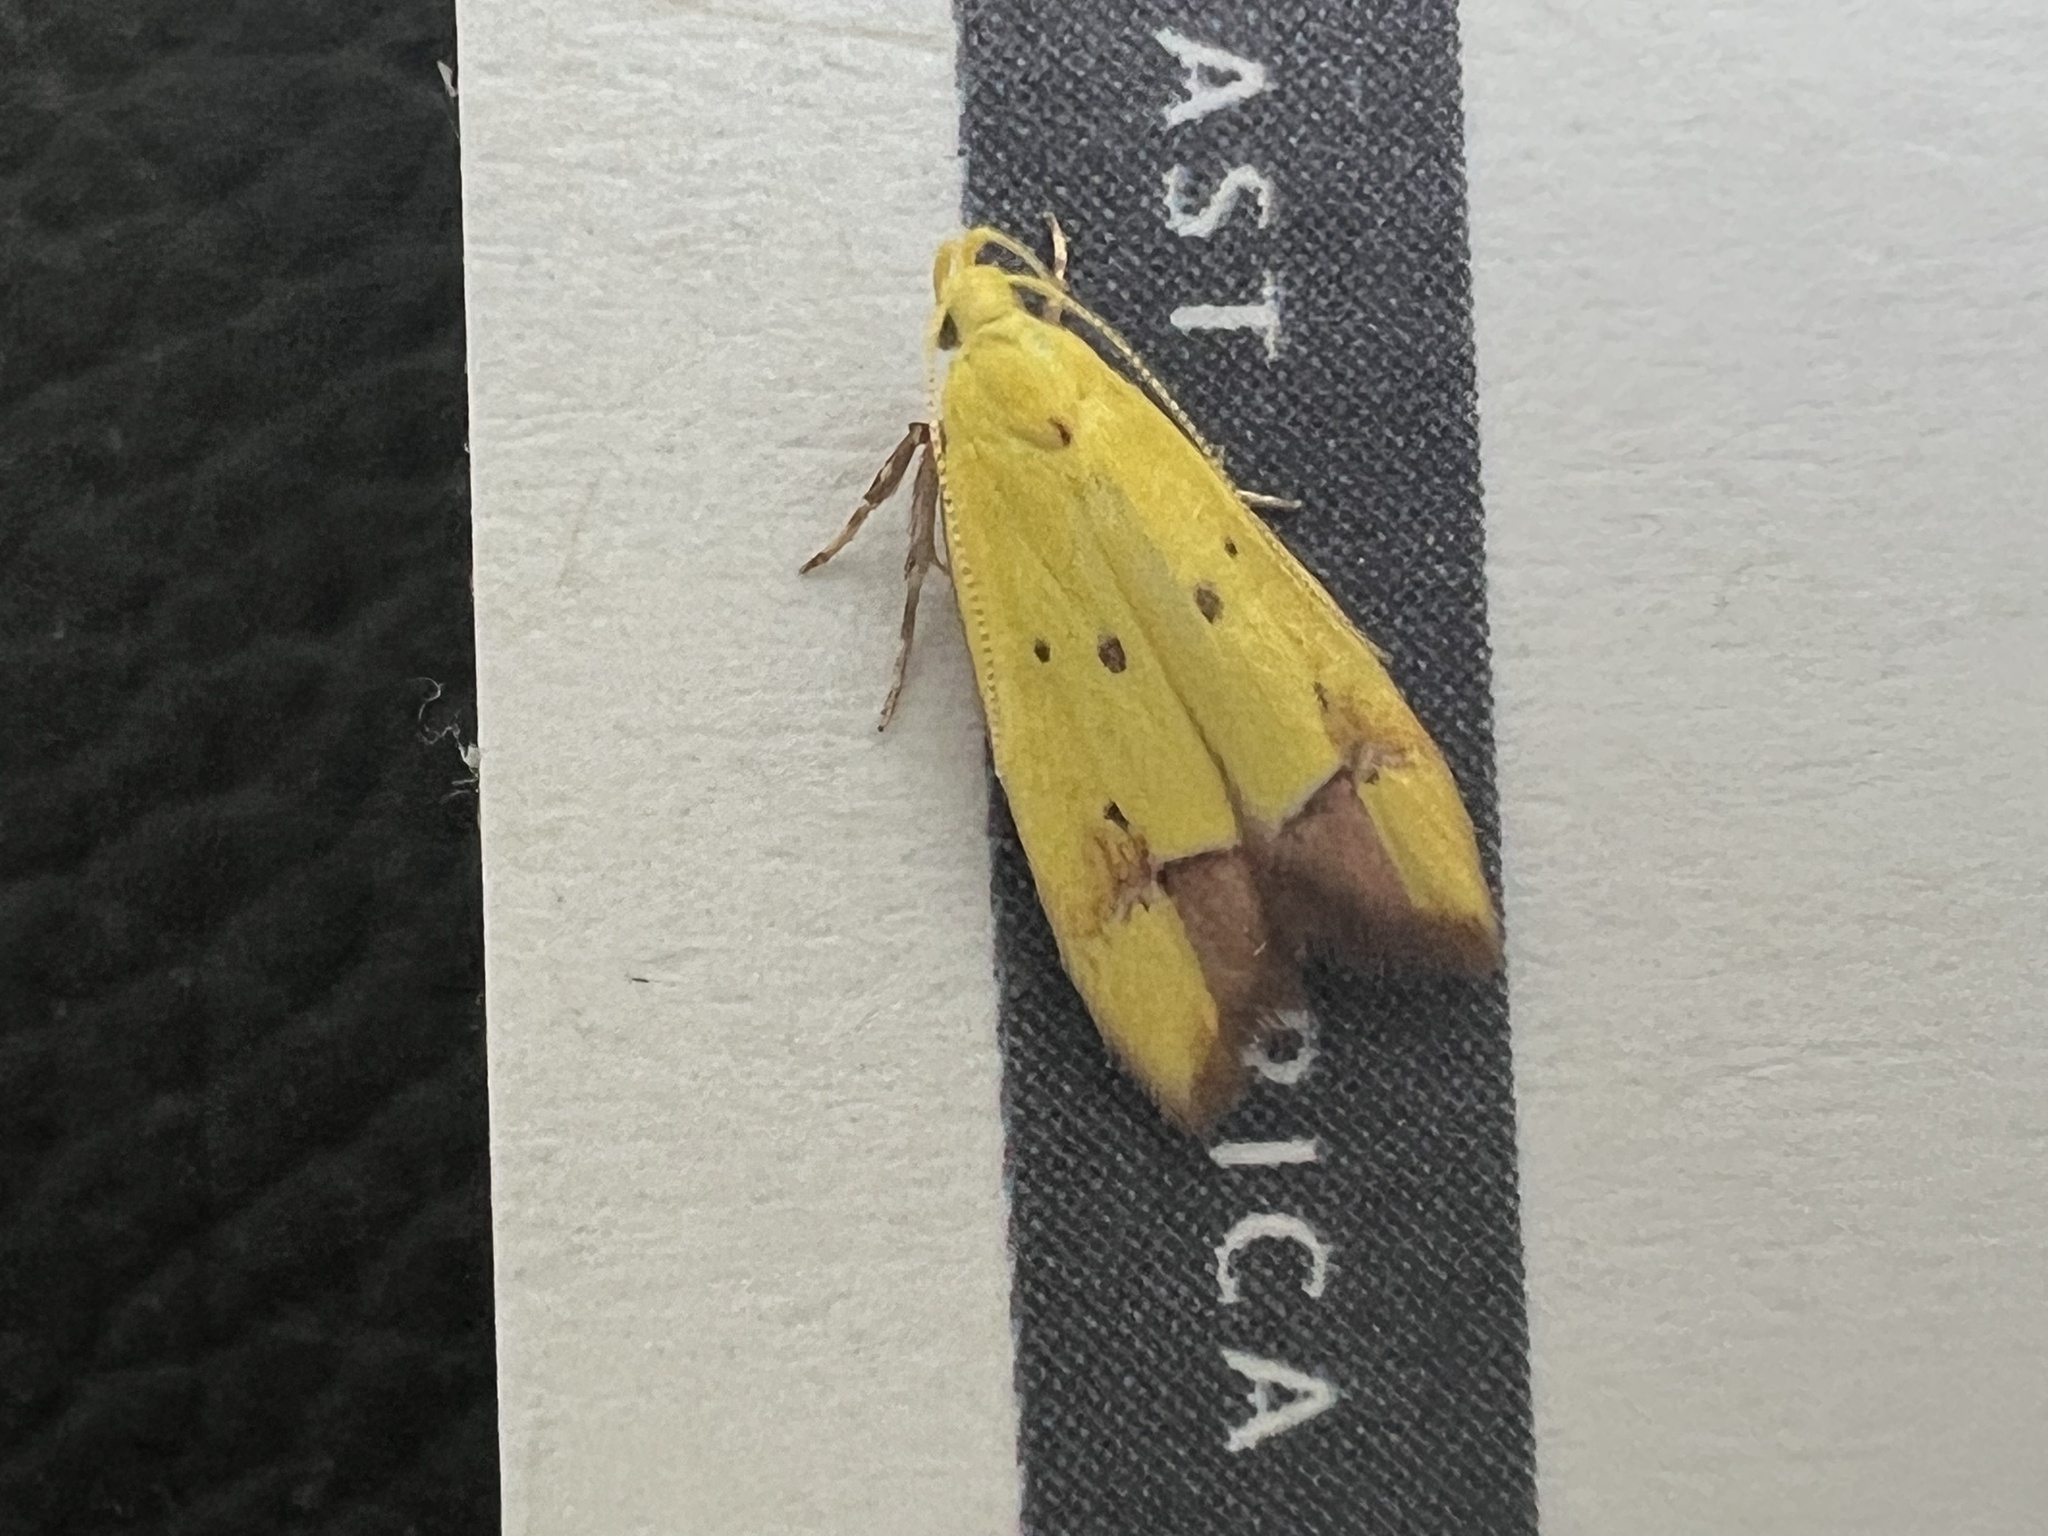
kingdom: Animalia
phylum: Arthropoda
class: Insecta
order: Lepidoptera
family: Oecophoridae
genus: Gymnobathra
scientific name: Gymnobathra flavidella
